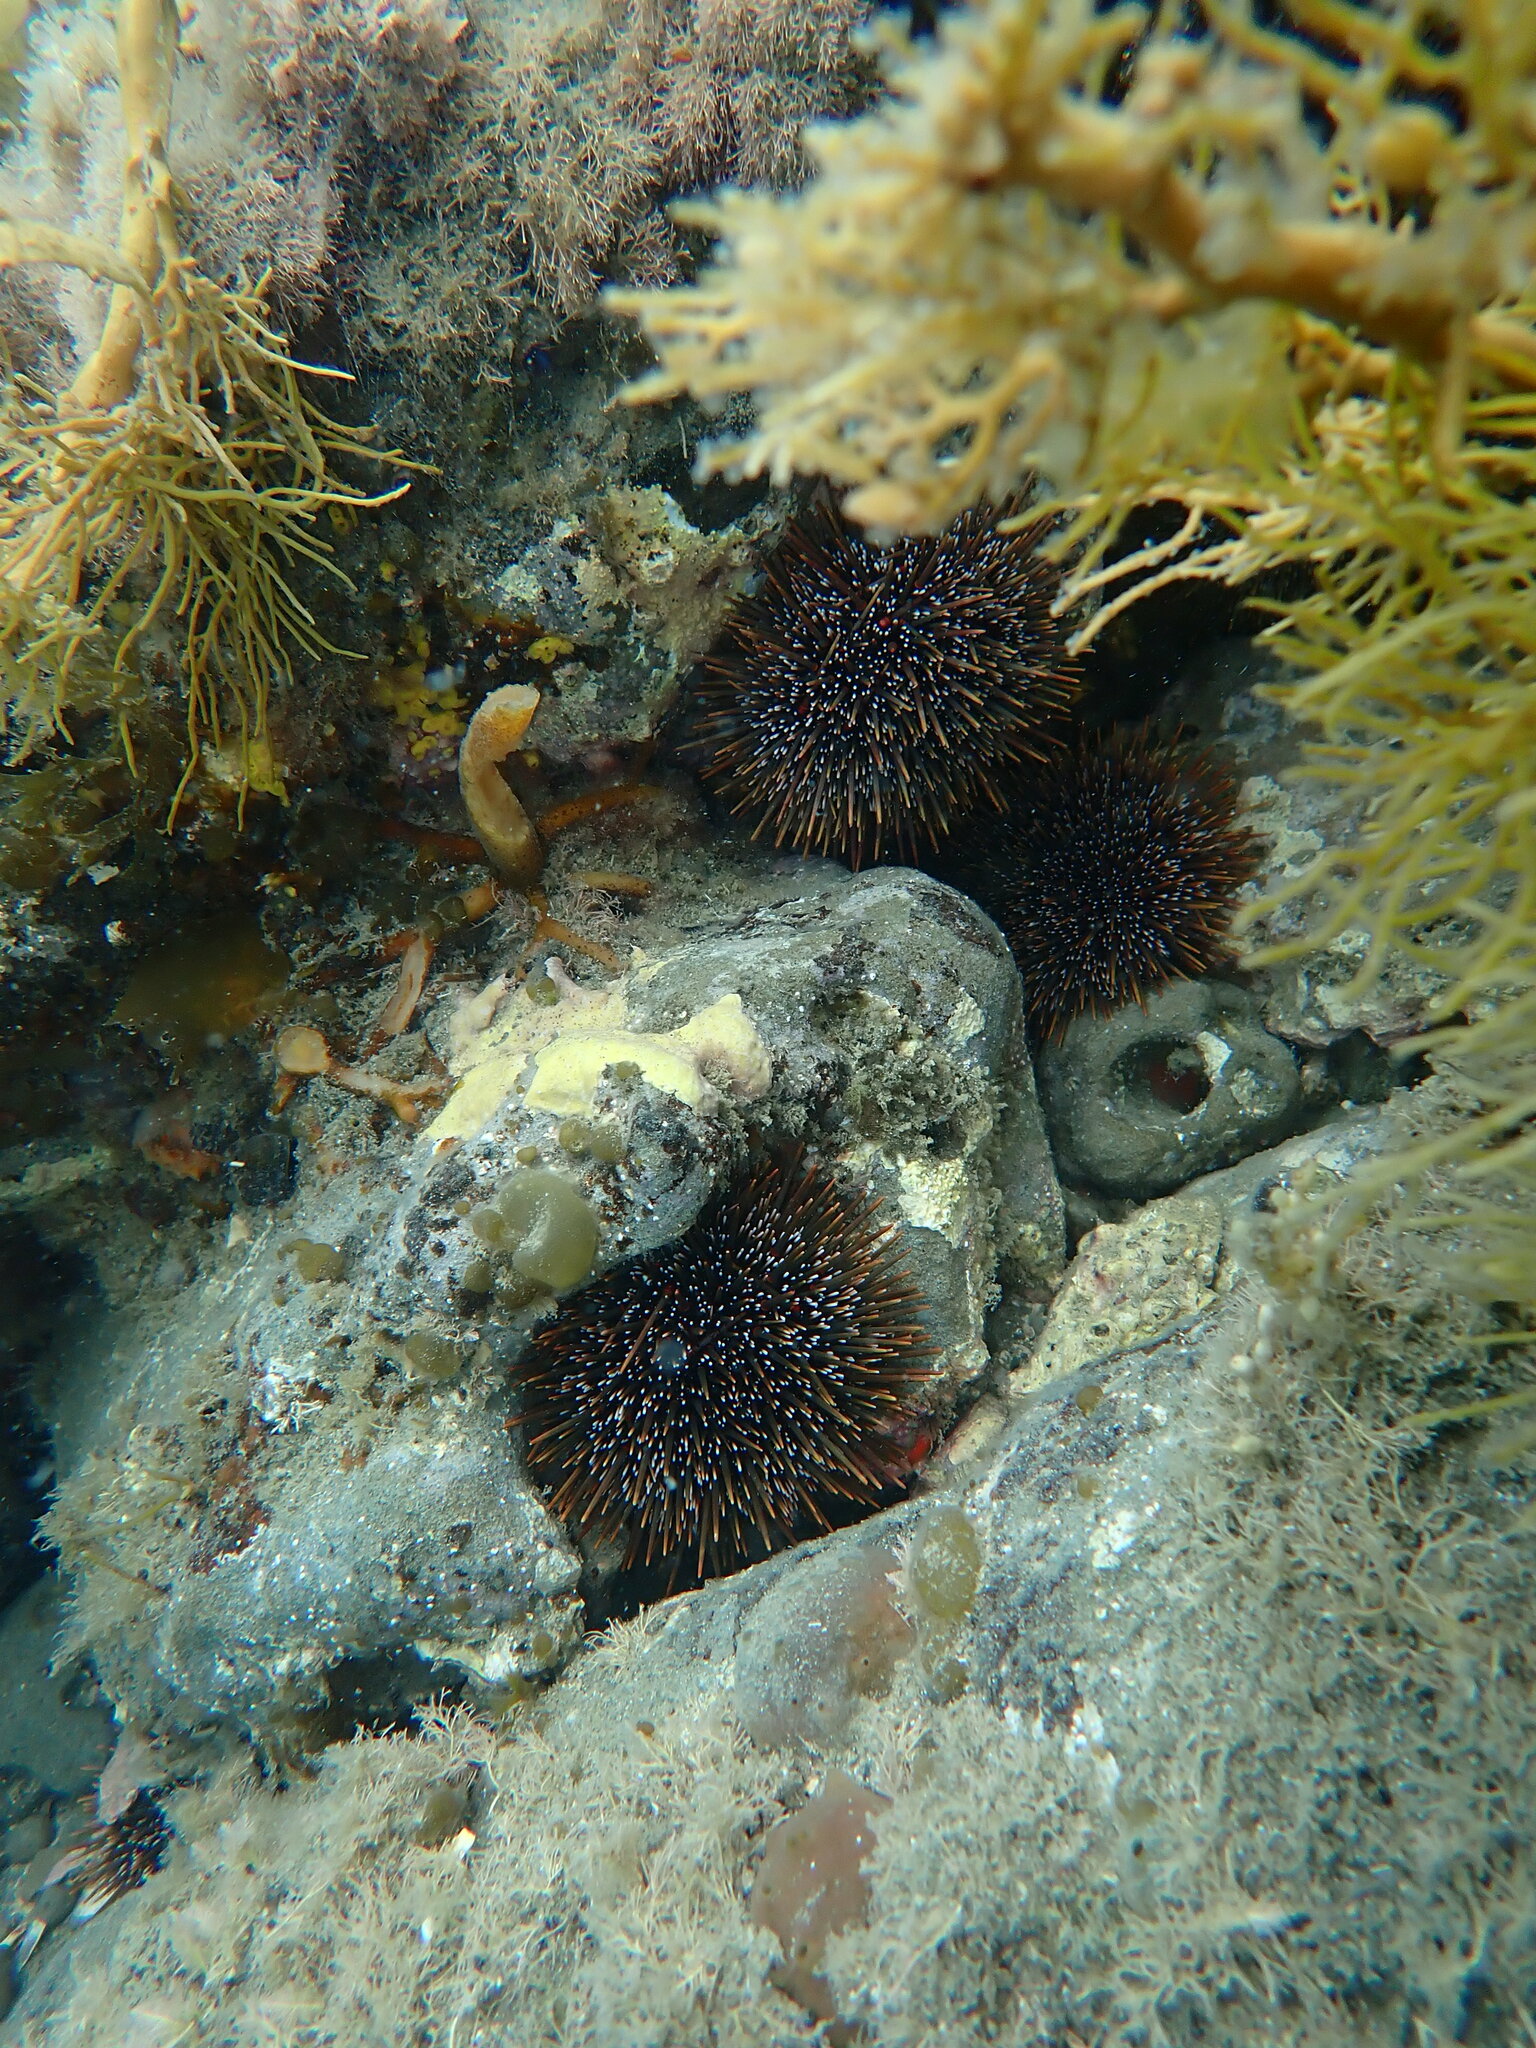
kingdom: Animalia
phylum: Echinodermata
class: Echinoidea
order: Camarodonta
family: Echinometridae
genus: Evechinus
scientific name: Evechinus chloroticus
